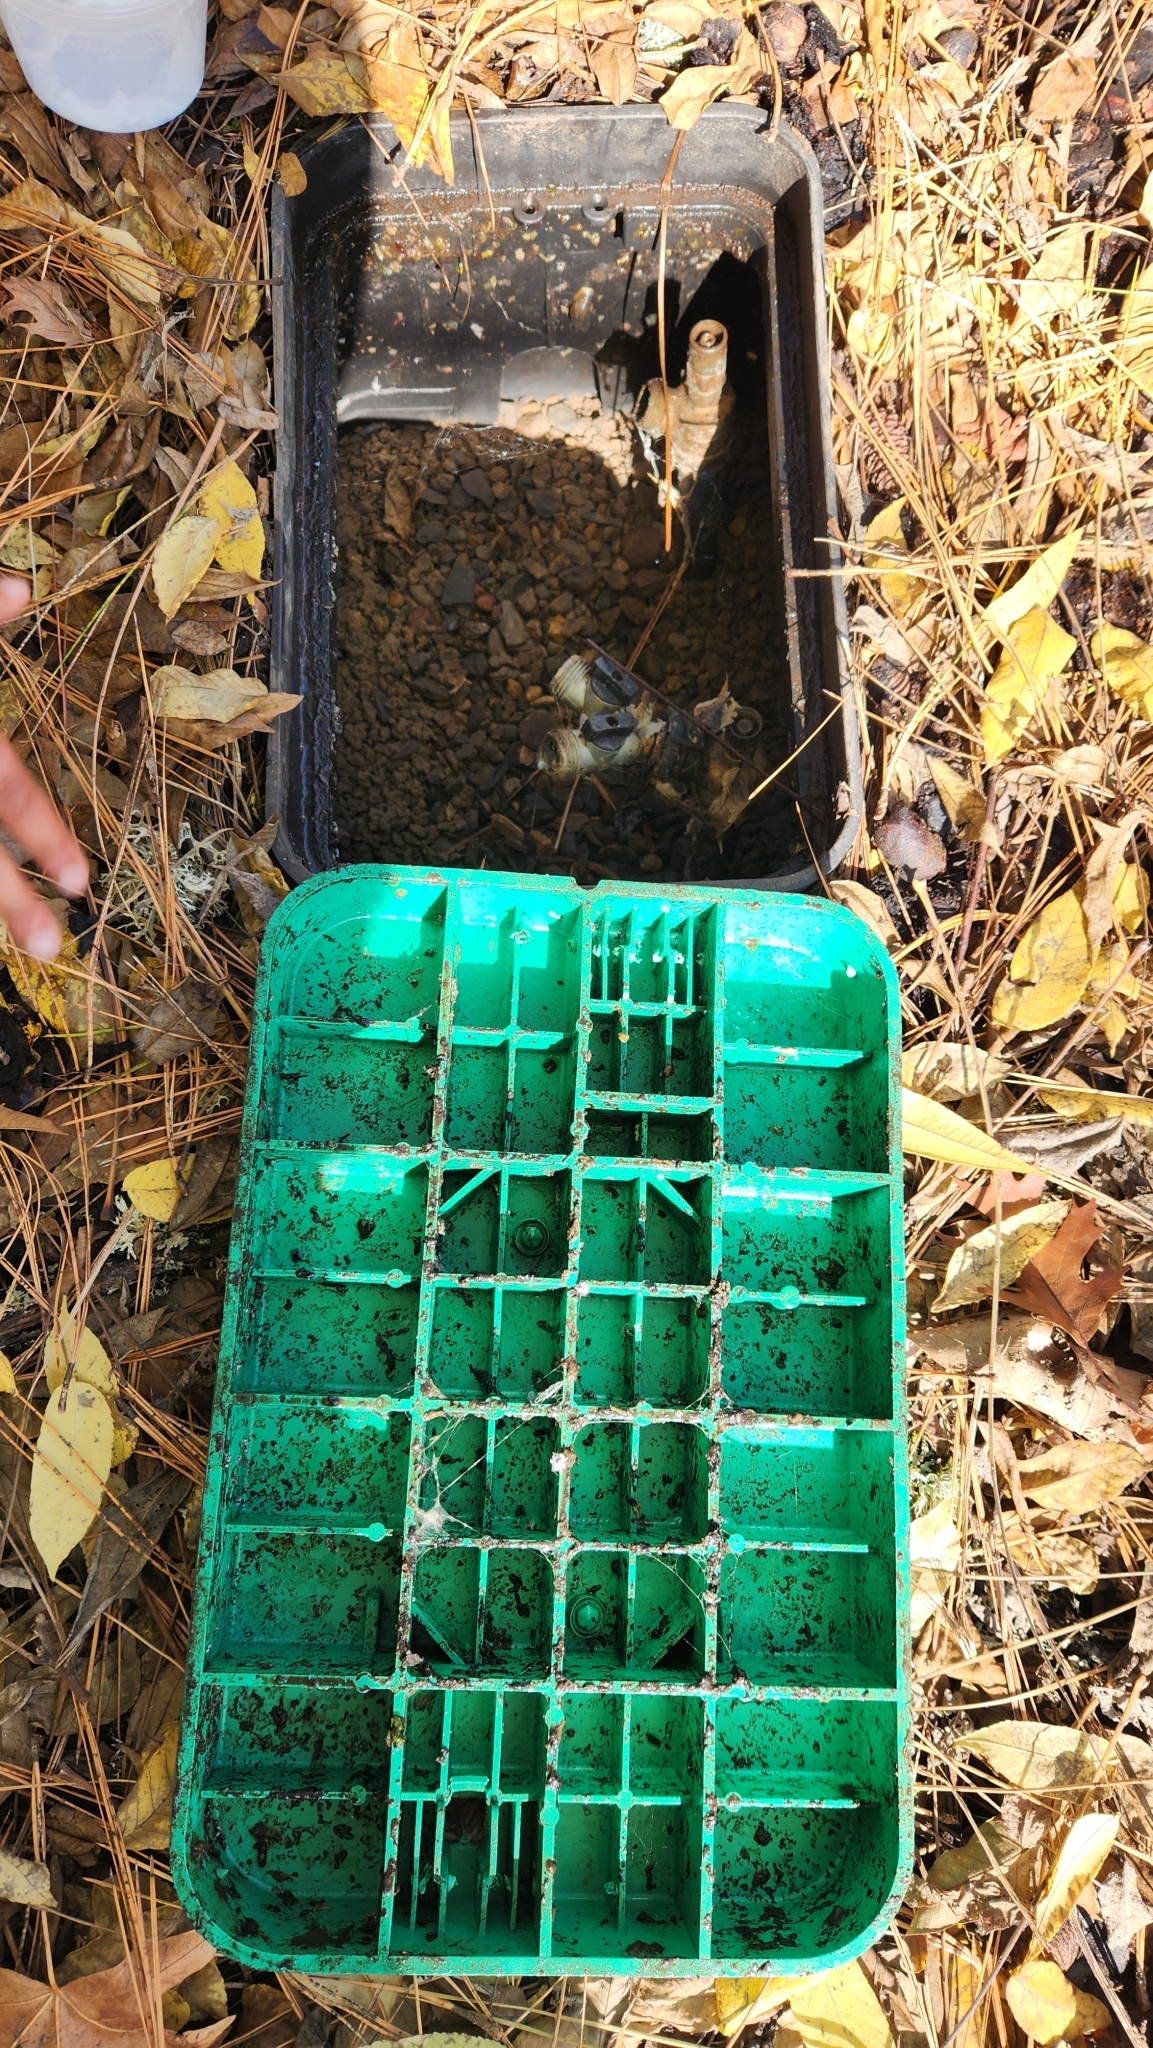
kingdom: Animalia
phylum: Mollusca
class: Gastropoda
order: Stylommatophora
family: Limacidae
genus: Limacus
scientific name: Limacus flavus
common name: Yellow gardenslug
